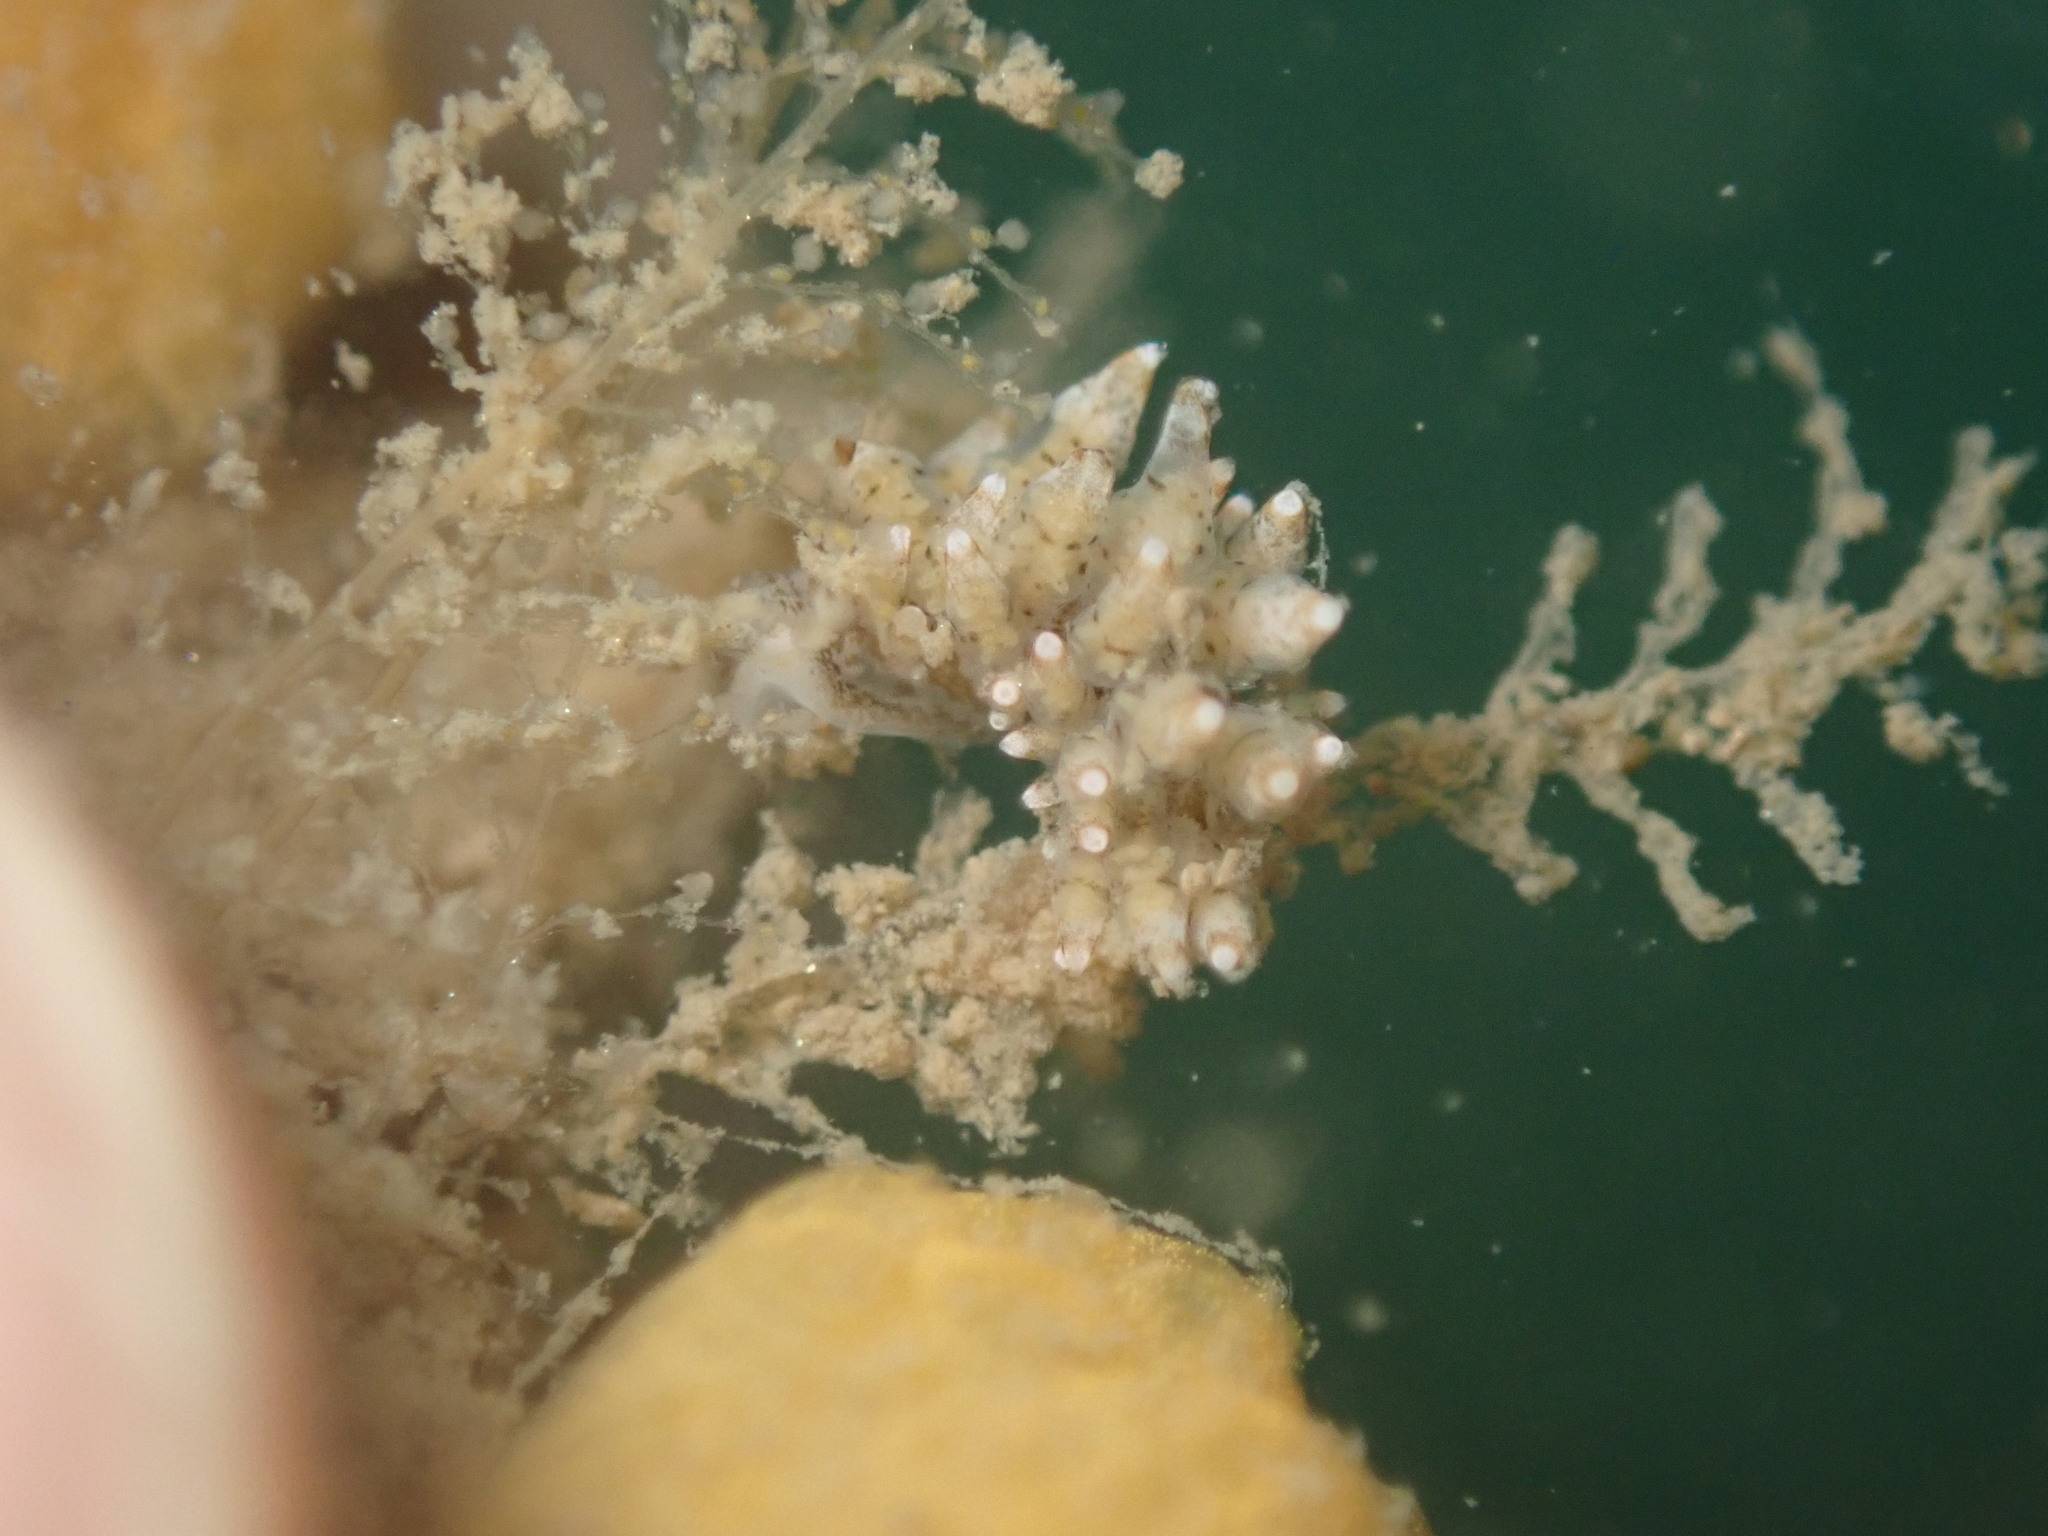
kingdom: Animalia
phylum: Mollusca
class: Gastropoda
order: Nudibranchia
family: Eubranchidae
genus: Eubranchus
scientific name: Eubranchus rustyus
